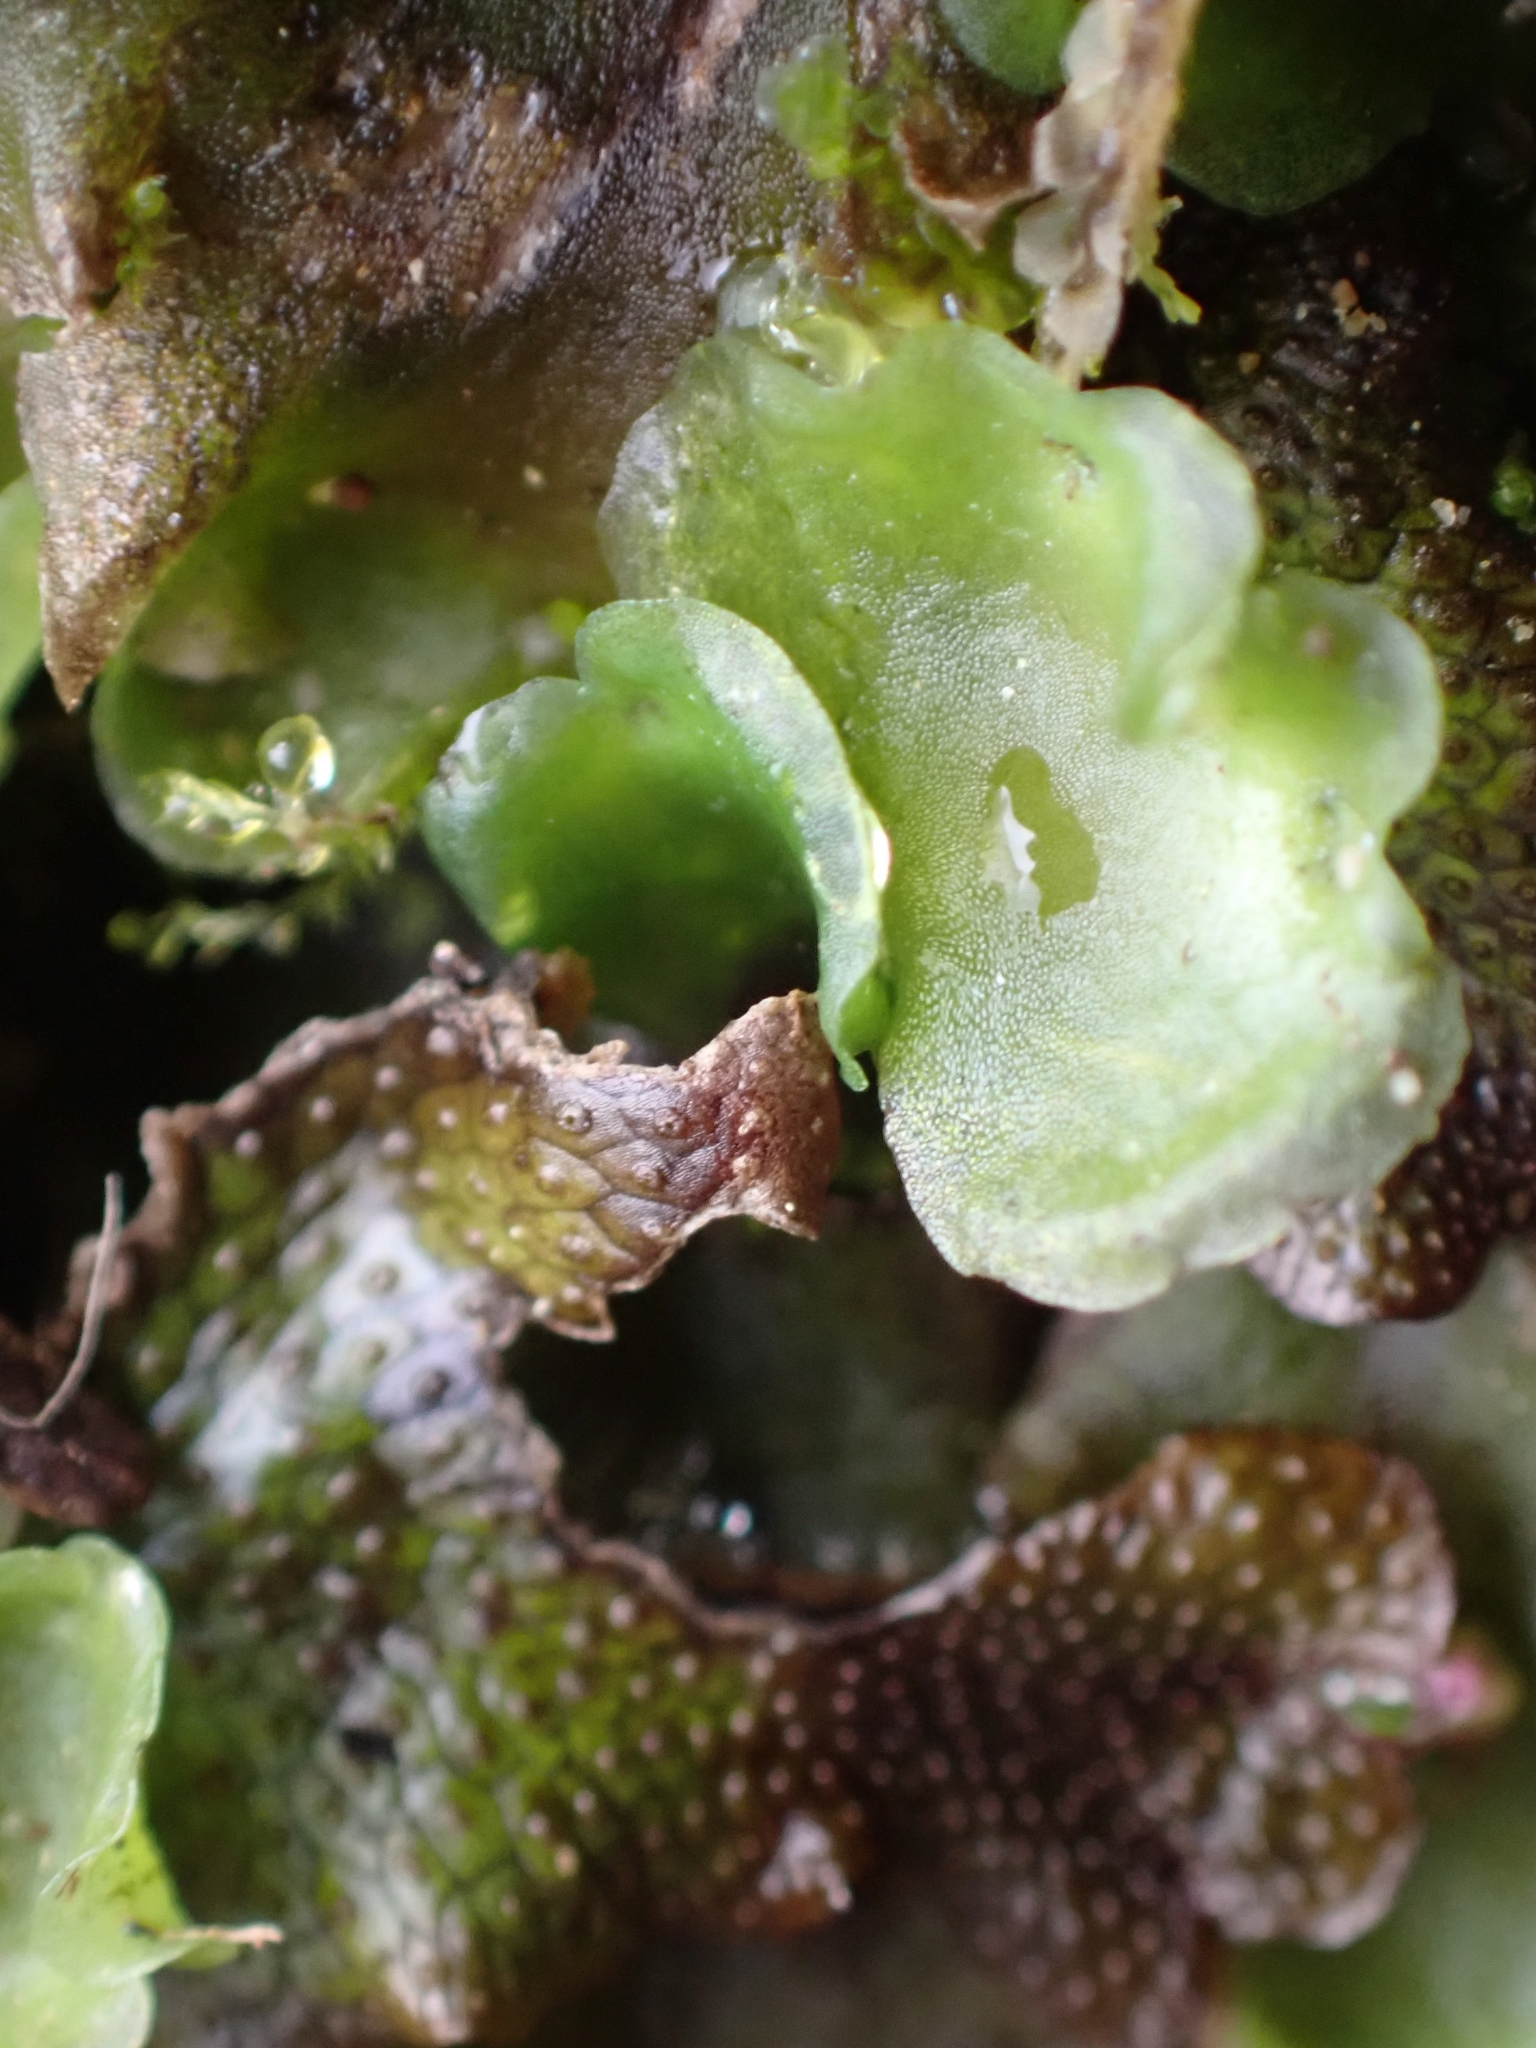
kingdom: Plantae
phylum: Marchantiophyta
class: Marchantiopsida
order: Marchantiales
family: Conocephalaceae
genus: Conocephalum
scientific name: Conocephalum salebrosum
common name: Cat-tongue liverwort
